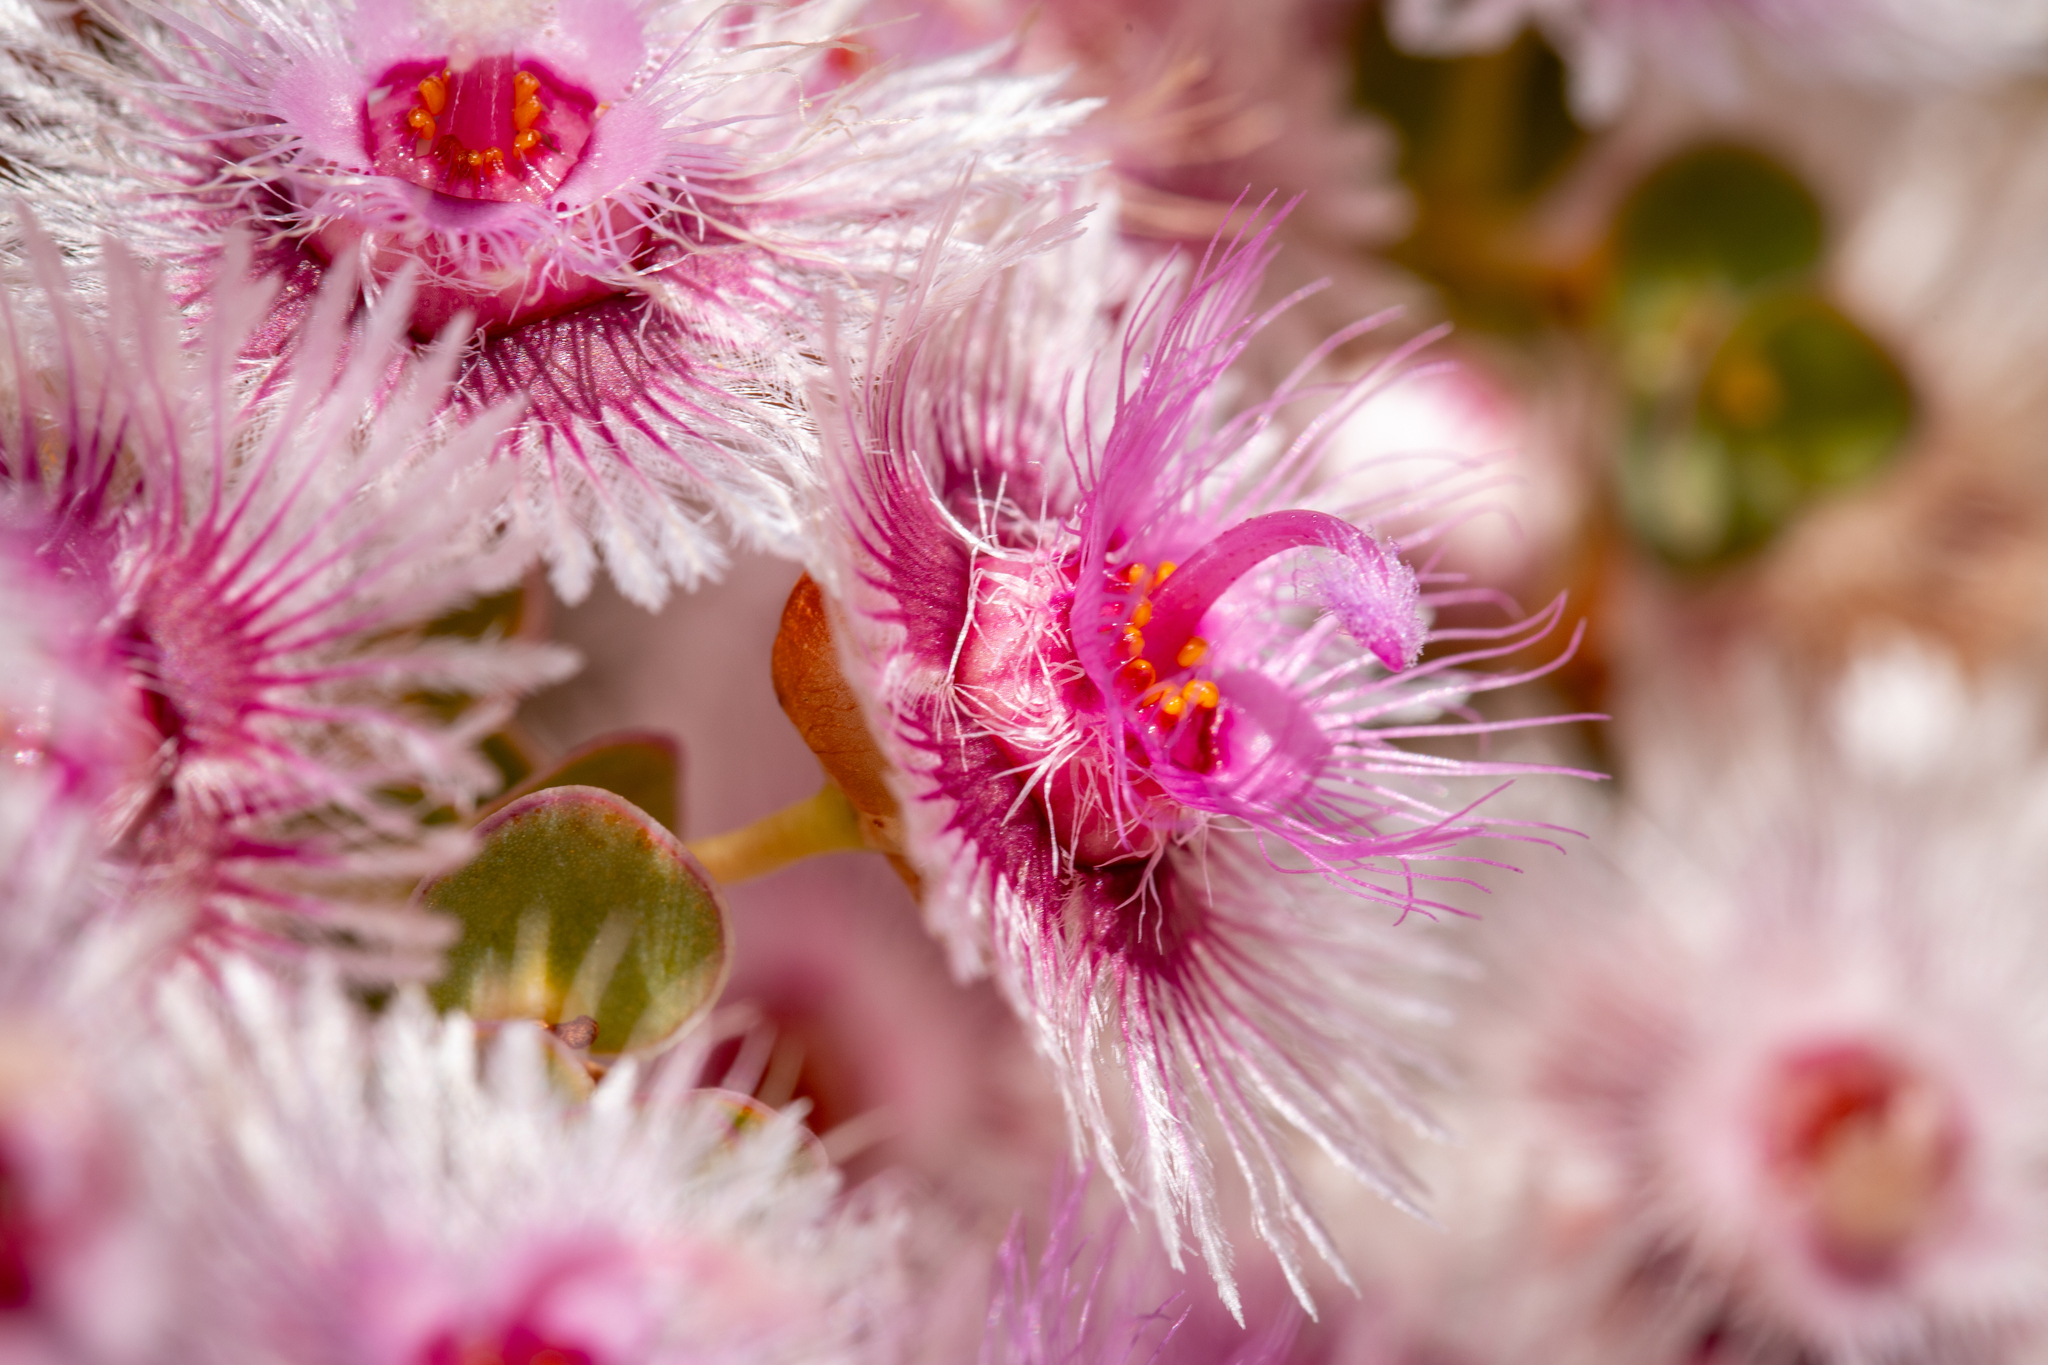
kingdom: Plantae
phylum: Tracheophyta
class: Magnoliopsida
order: Myrtales
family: Myrtaceae
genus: Verticordia
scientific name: Verticordia oculata
